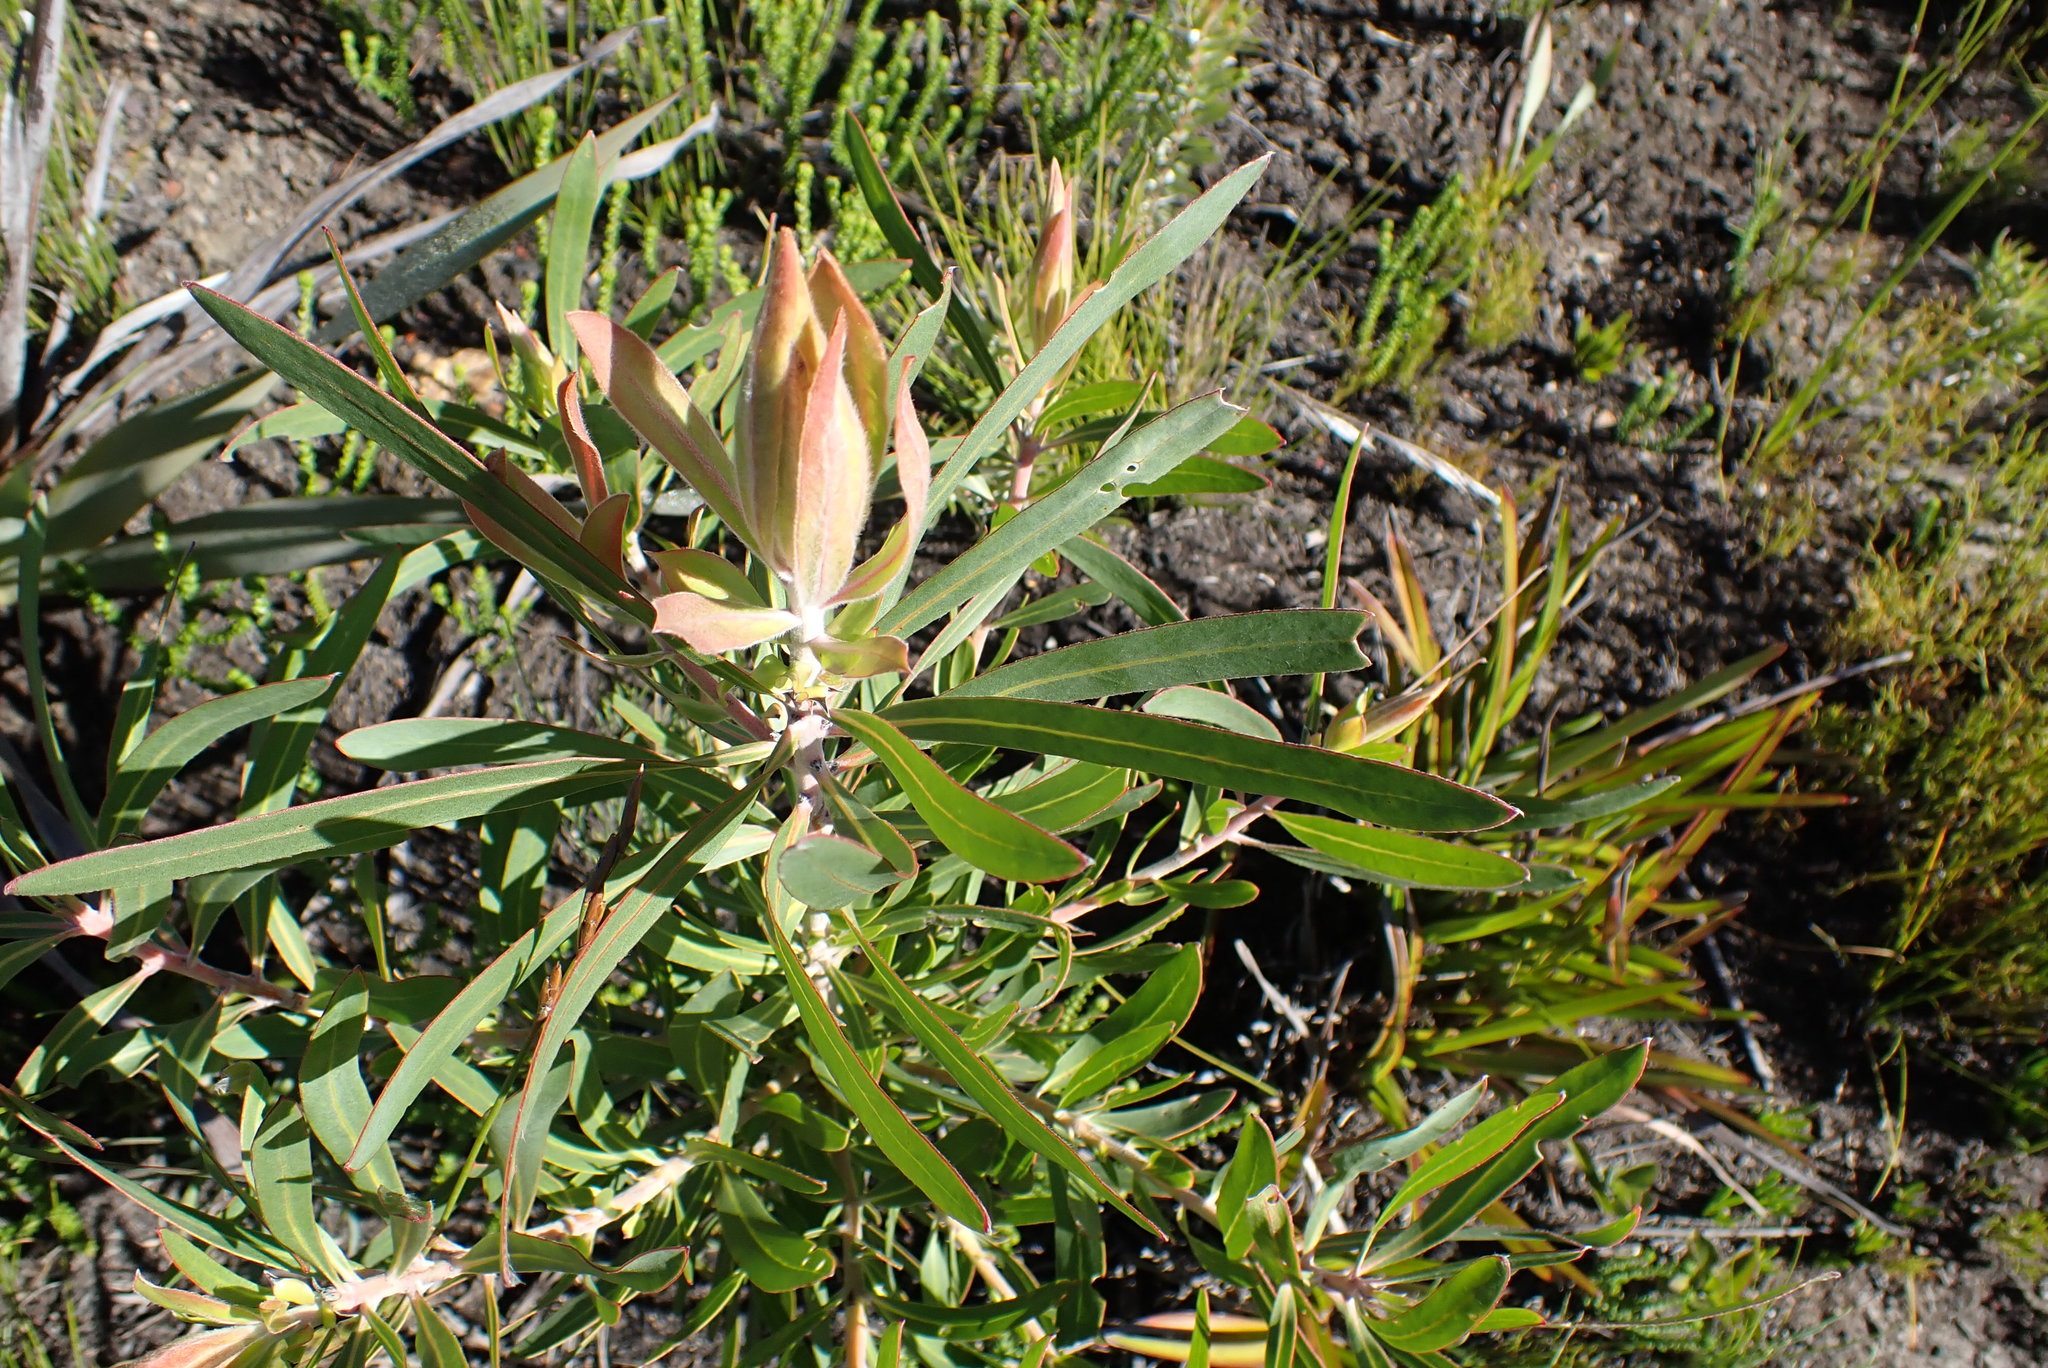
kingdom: Plantae
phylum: Tracheophyta
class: Magnoliopsida
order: Proteales
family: Proteaceae
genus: Protea
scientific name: Protea neriifolia
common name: Blue sugarbush
